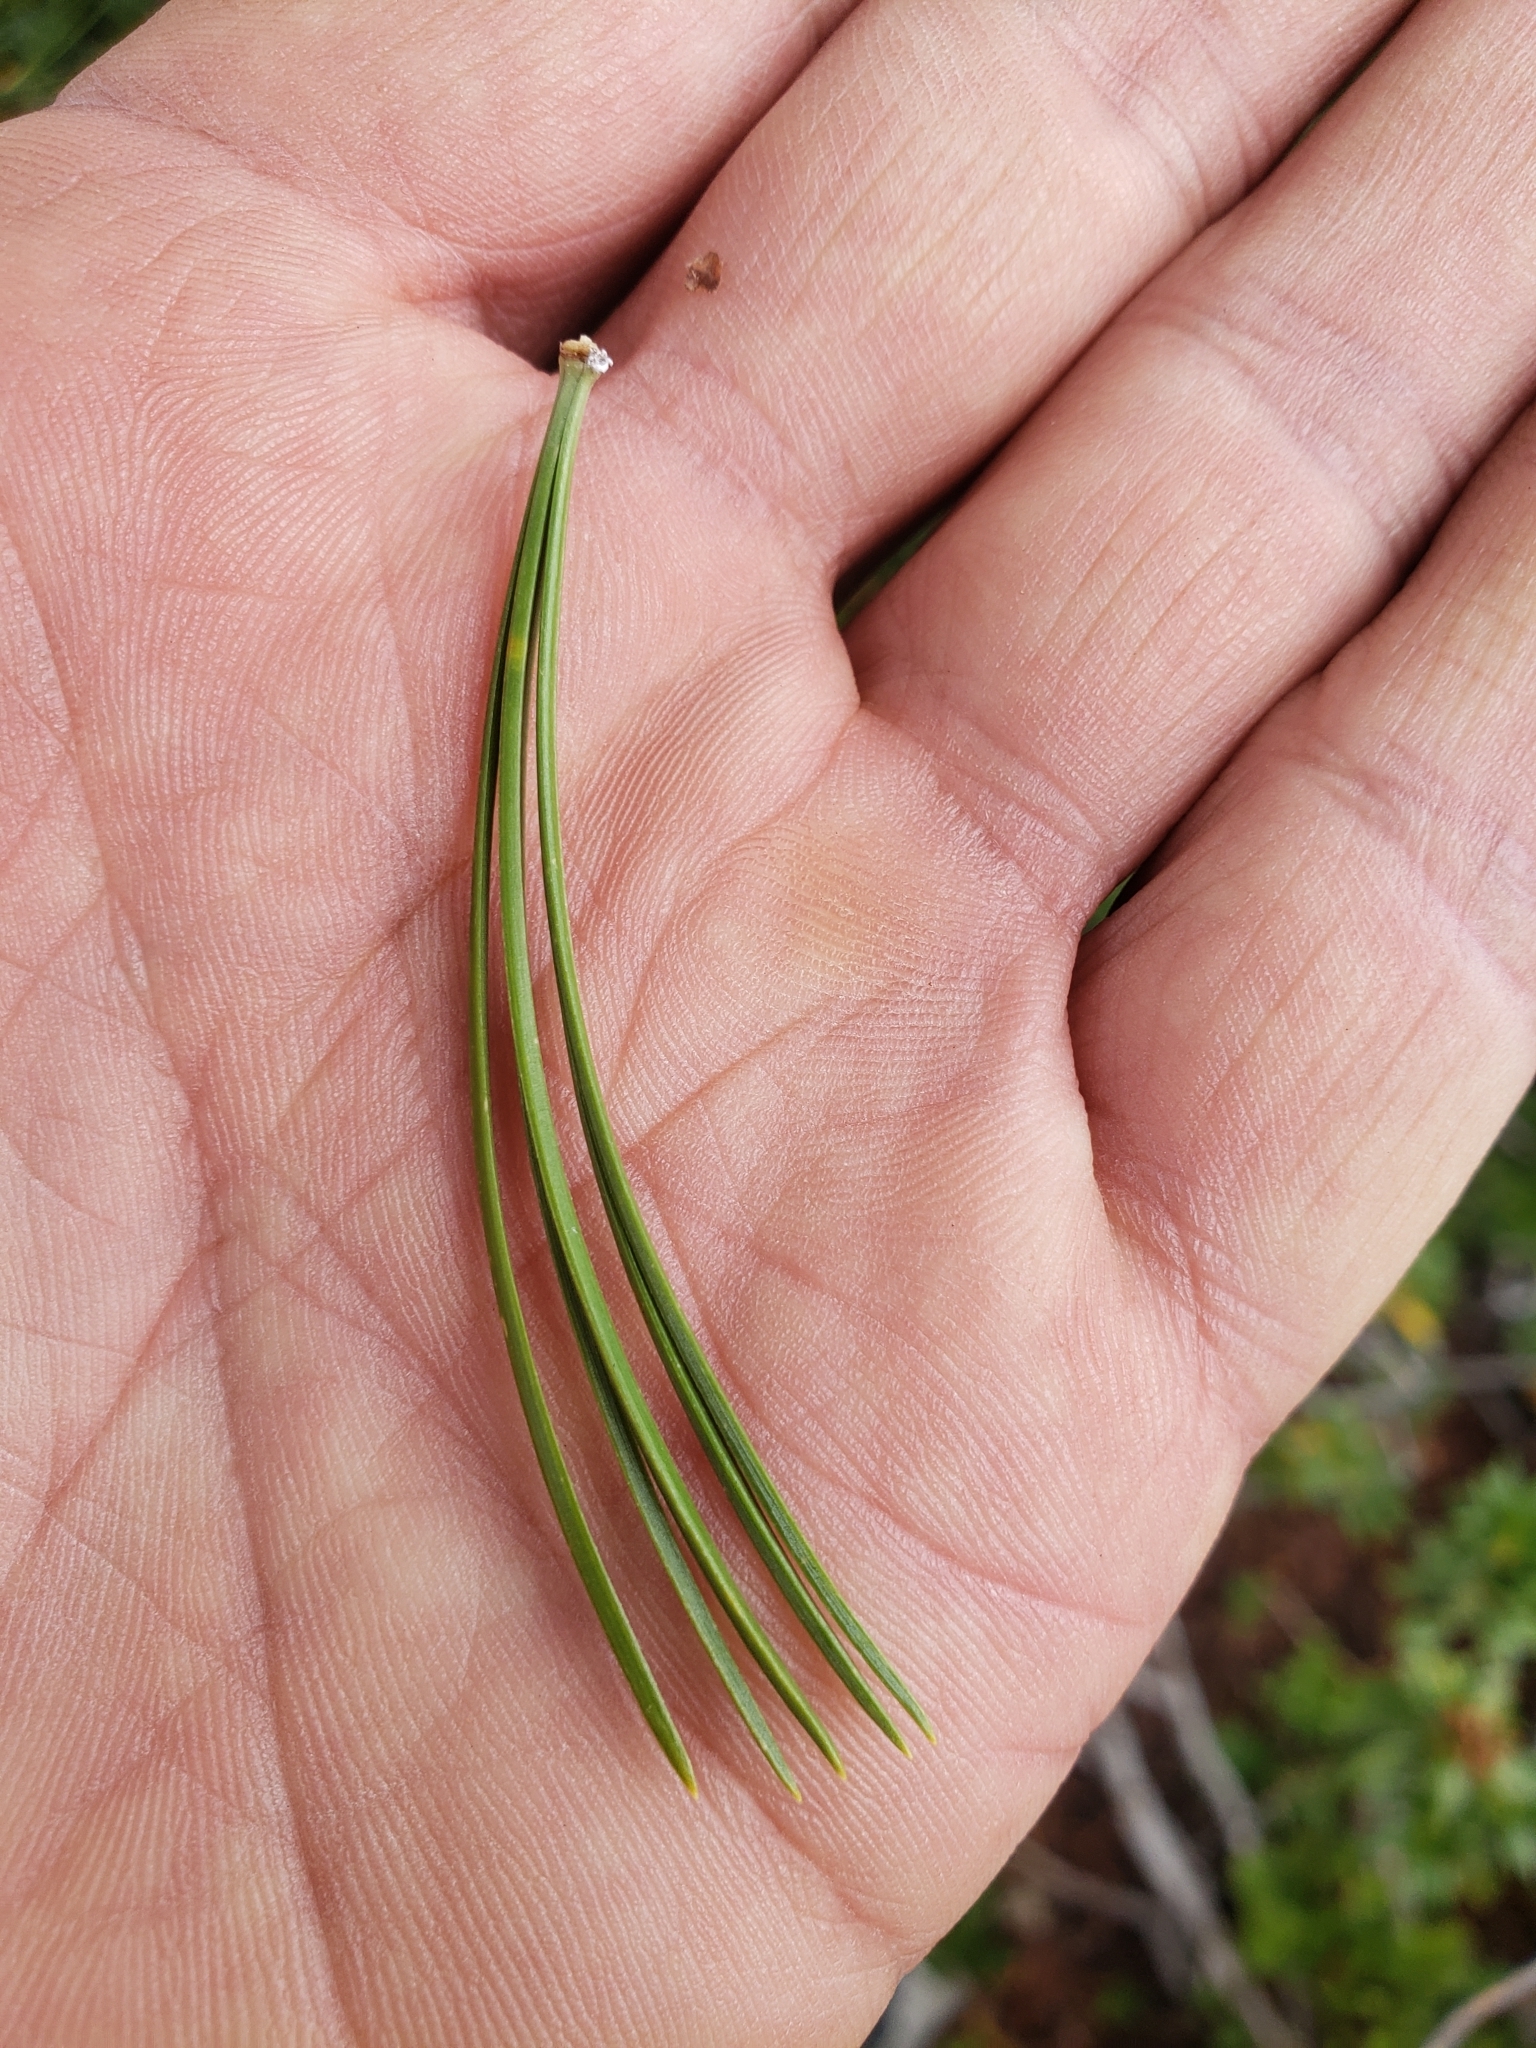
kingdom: Plantae
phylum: Tracheophyta
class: Pinopsida
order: Pinales
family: Pinaceae
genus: Pinus
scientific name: Pinus cembra
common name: Arolla pine
